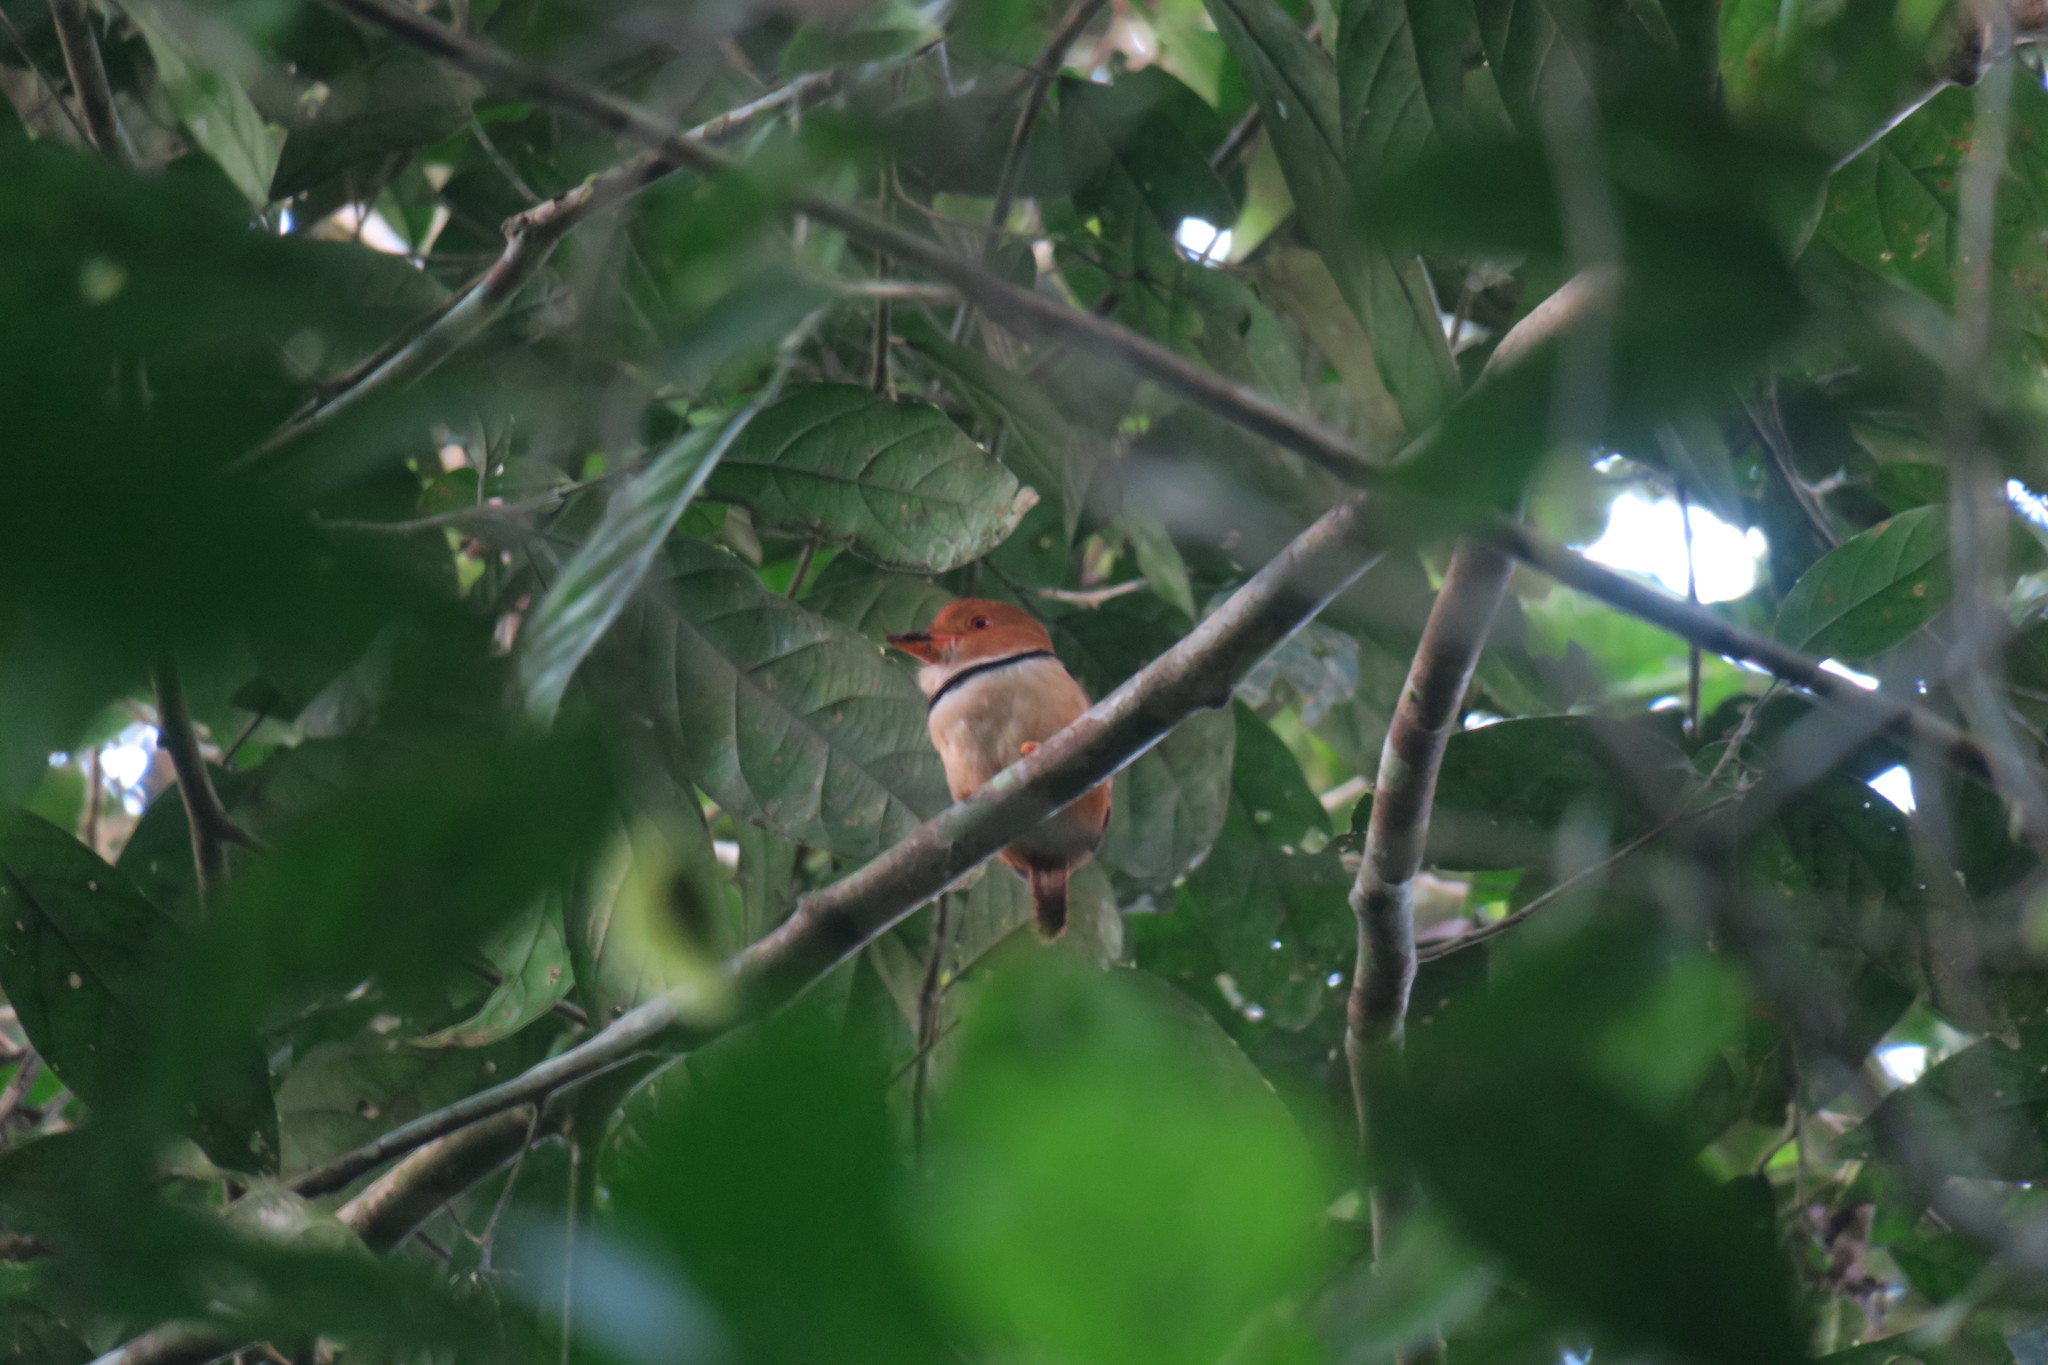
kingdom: Animalia
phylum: Chordata
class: Aves
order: Piciformes
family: Bucconidae
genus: Bucco
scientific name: Bucco capensis
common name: Collared puffbird
